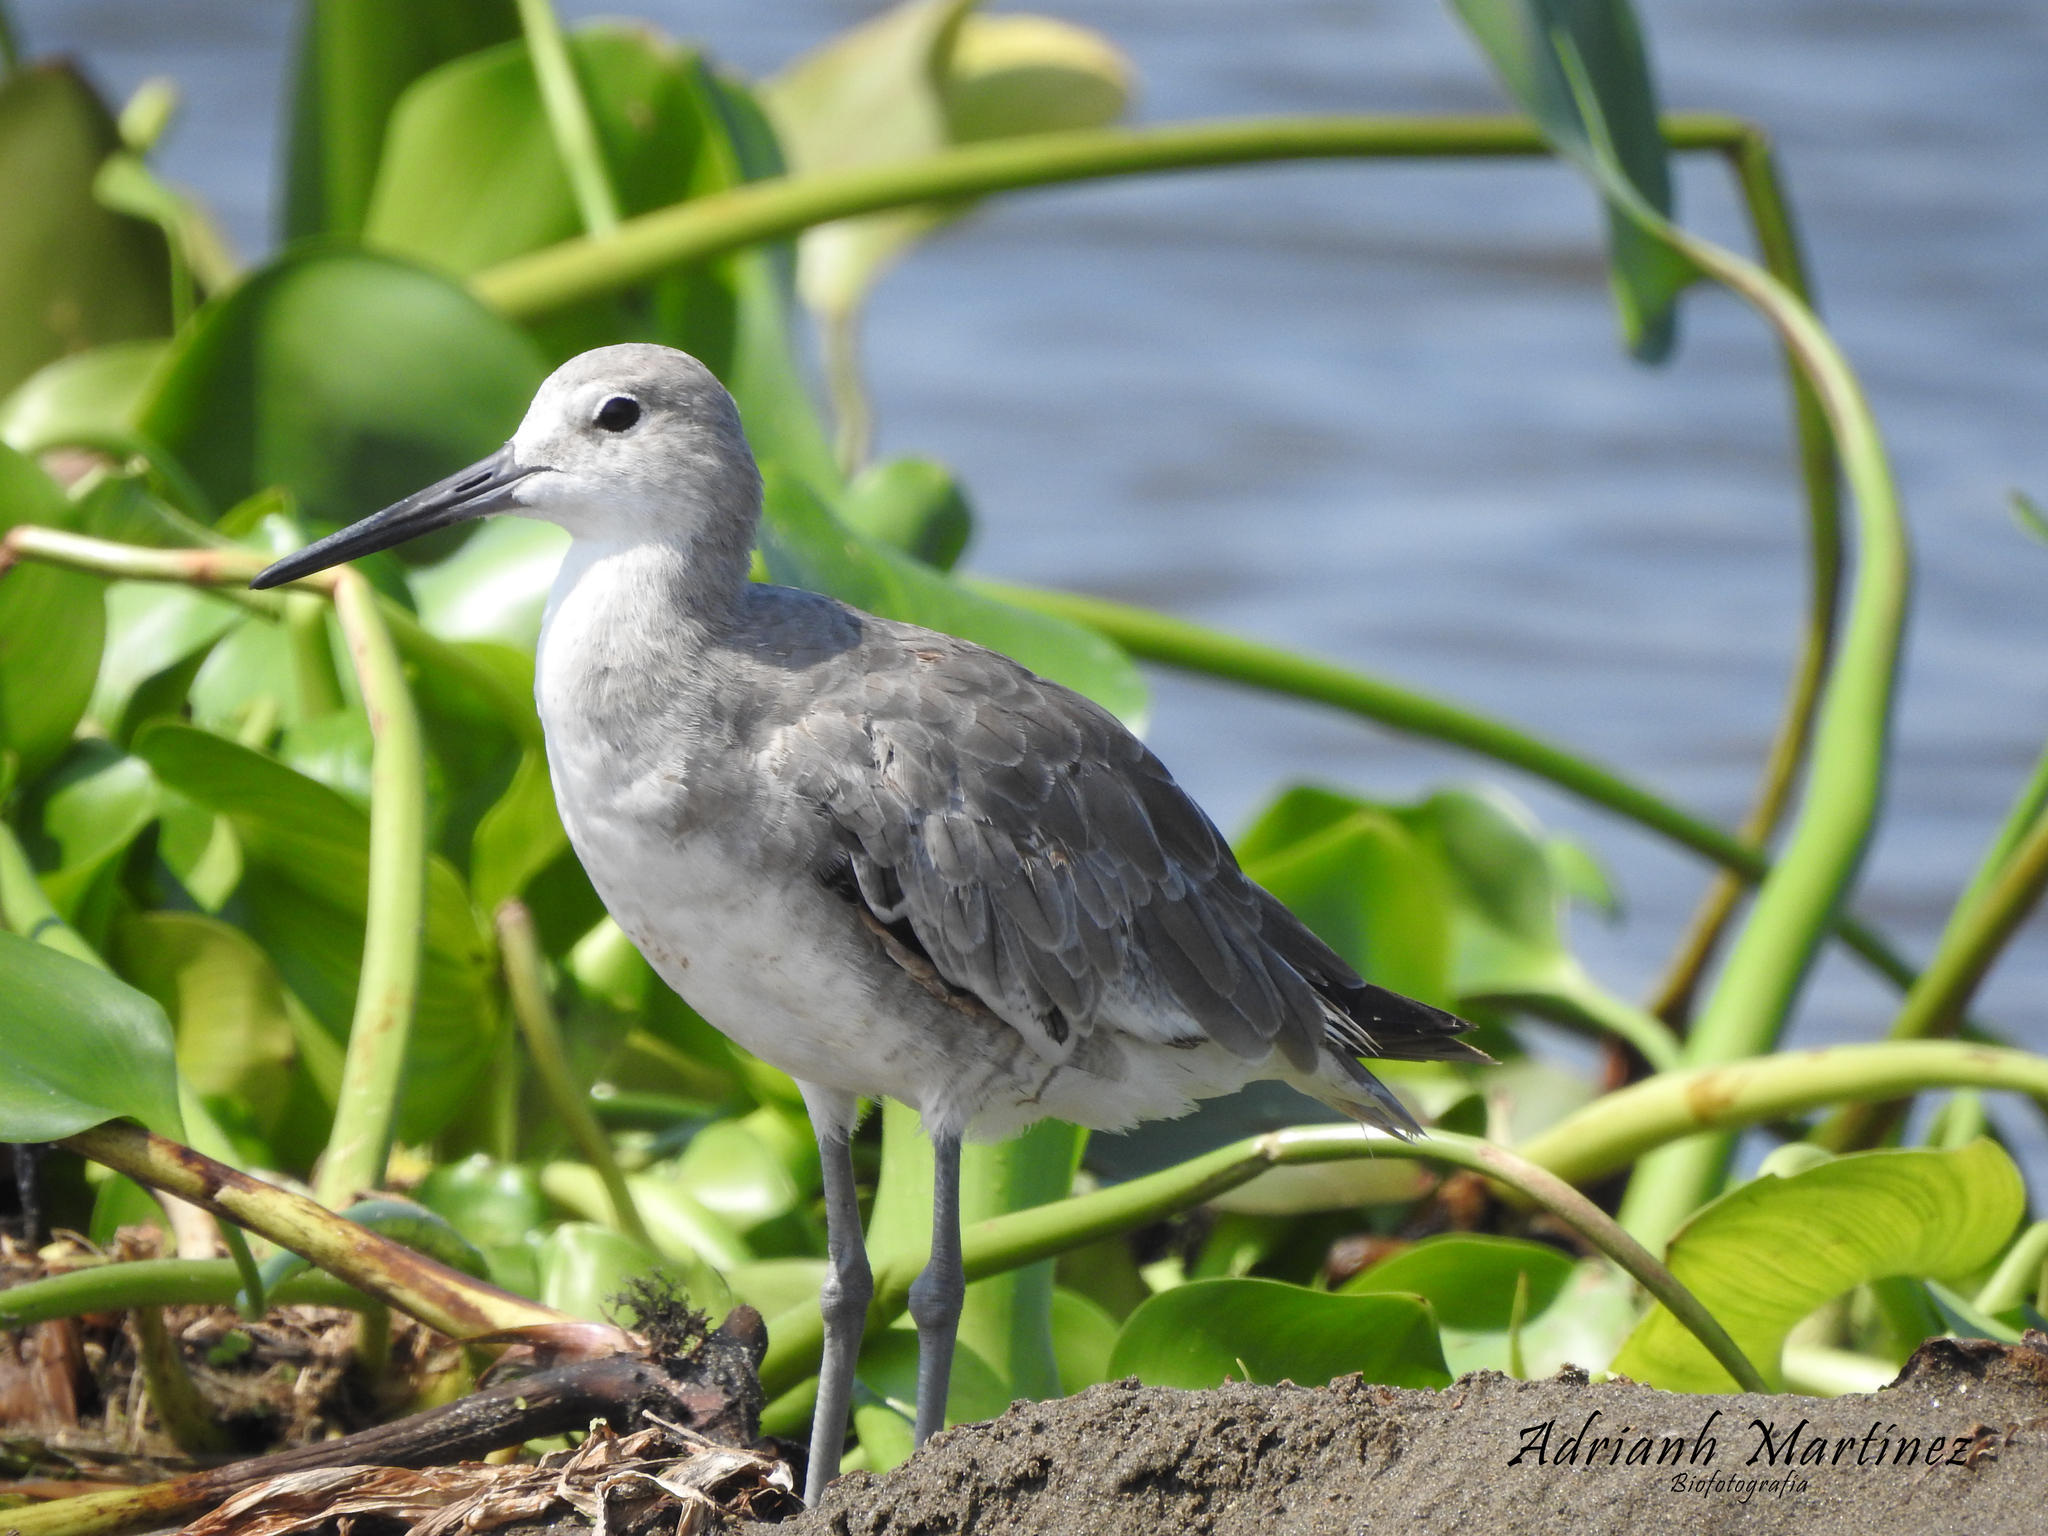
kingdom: Animalia
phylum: Chordata
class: Aves
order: Charadriiformes
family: Scolopacidae
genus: Tringa
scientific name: Tringa semipalmata
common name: Willet
